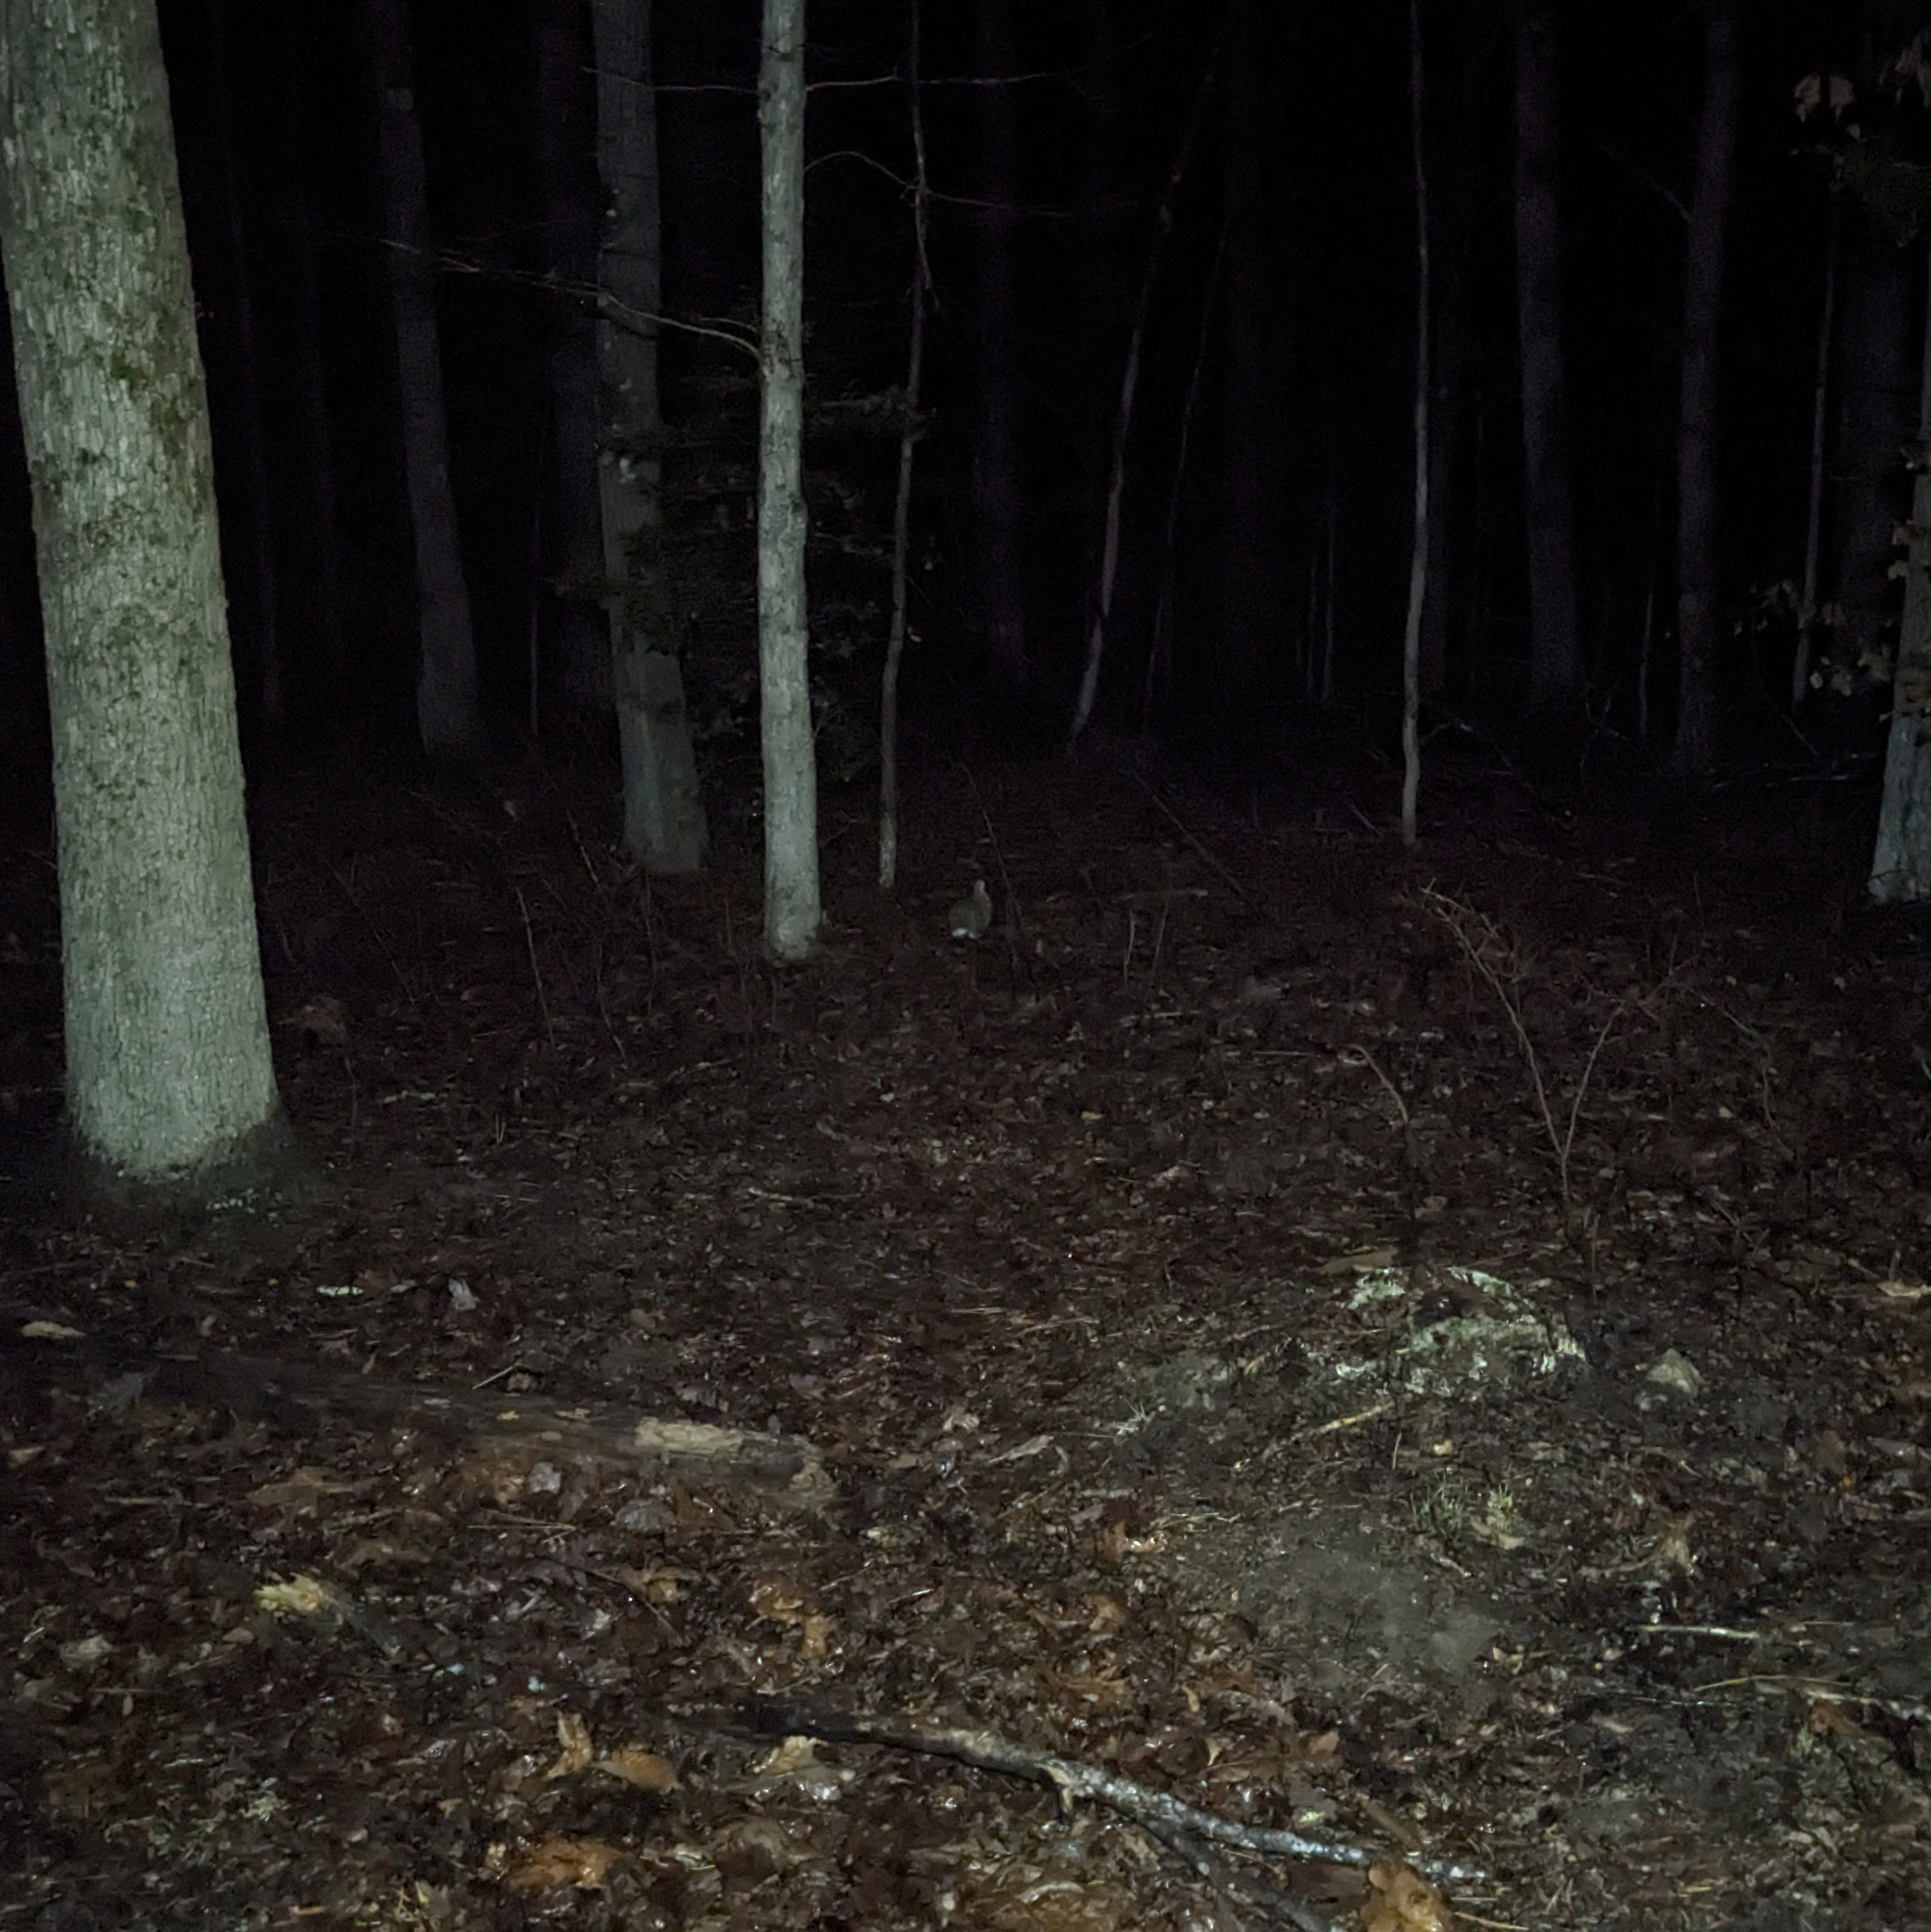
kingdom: Animalia
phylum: Chordata
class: Mammalia
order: Lagomorpha
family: Leporidae
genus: Sylvilagus
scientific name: Sylvilagus floridanus
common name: Eastern cottontail
